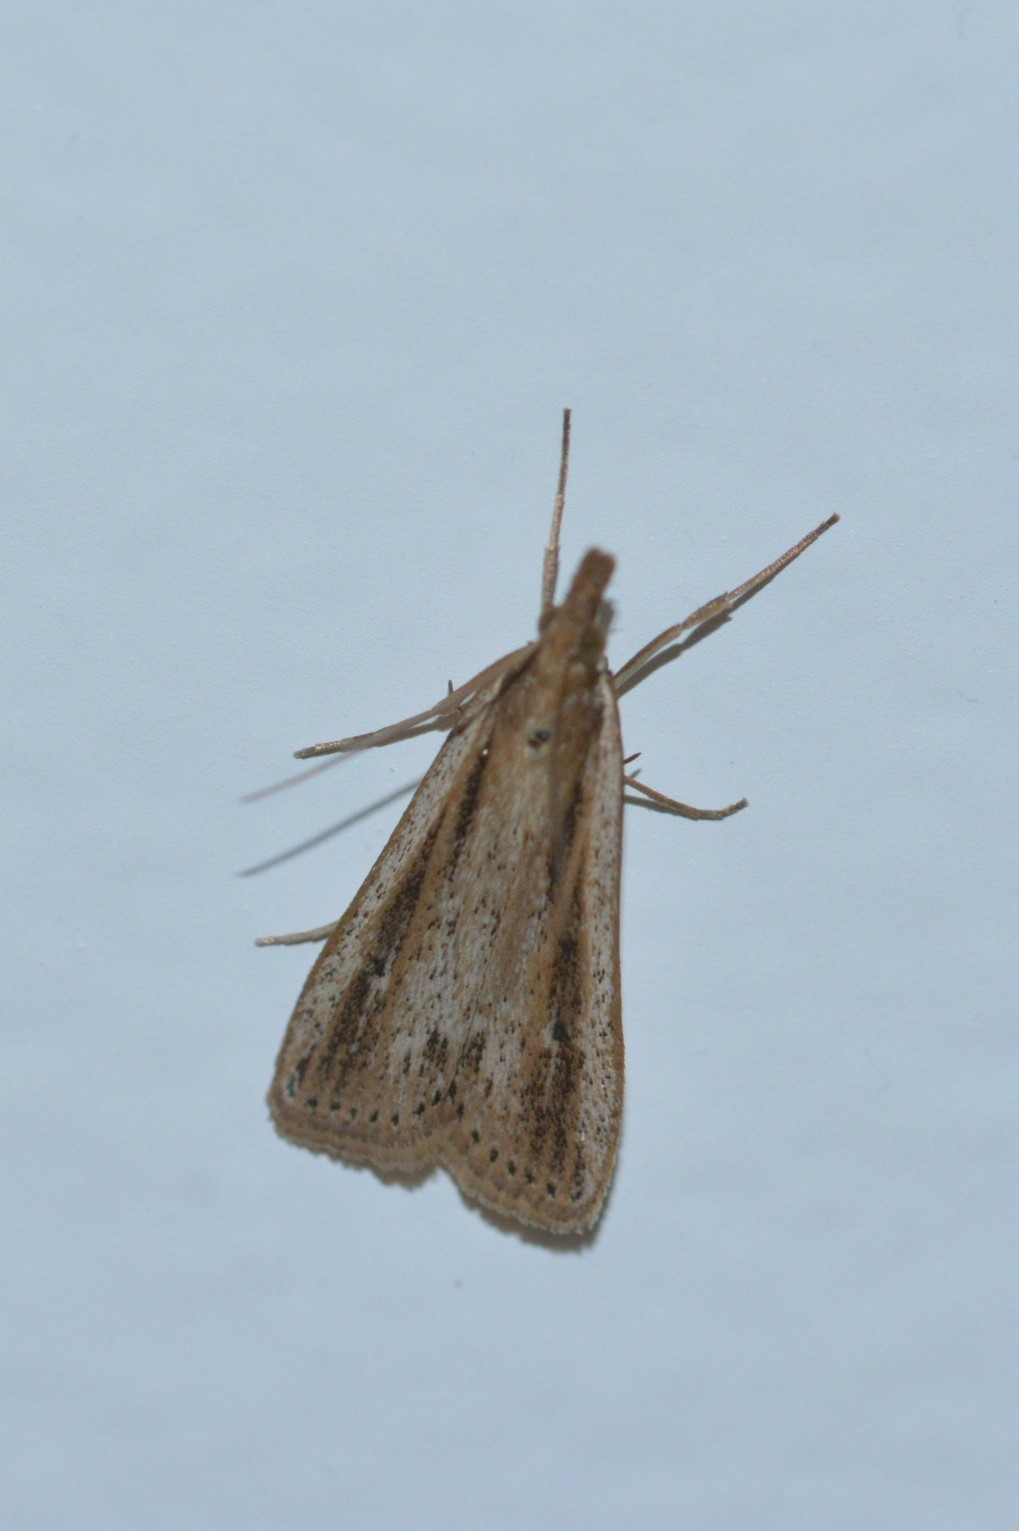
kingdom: Animalia
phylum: Arthropoda
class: Insecta
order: Lepidoptera
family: Crambidae
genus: Eudonia
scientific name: Eudonia sabulosella
